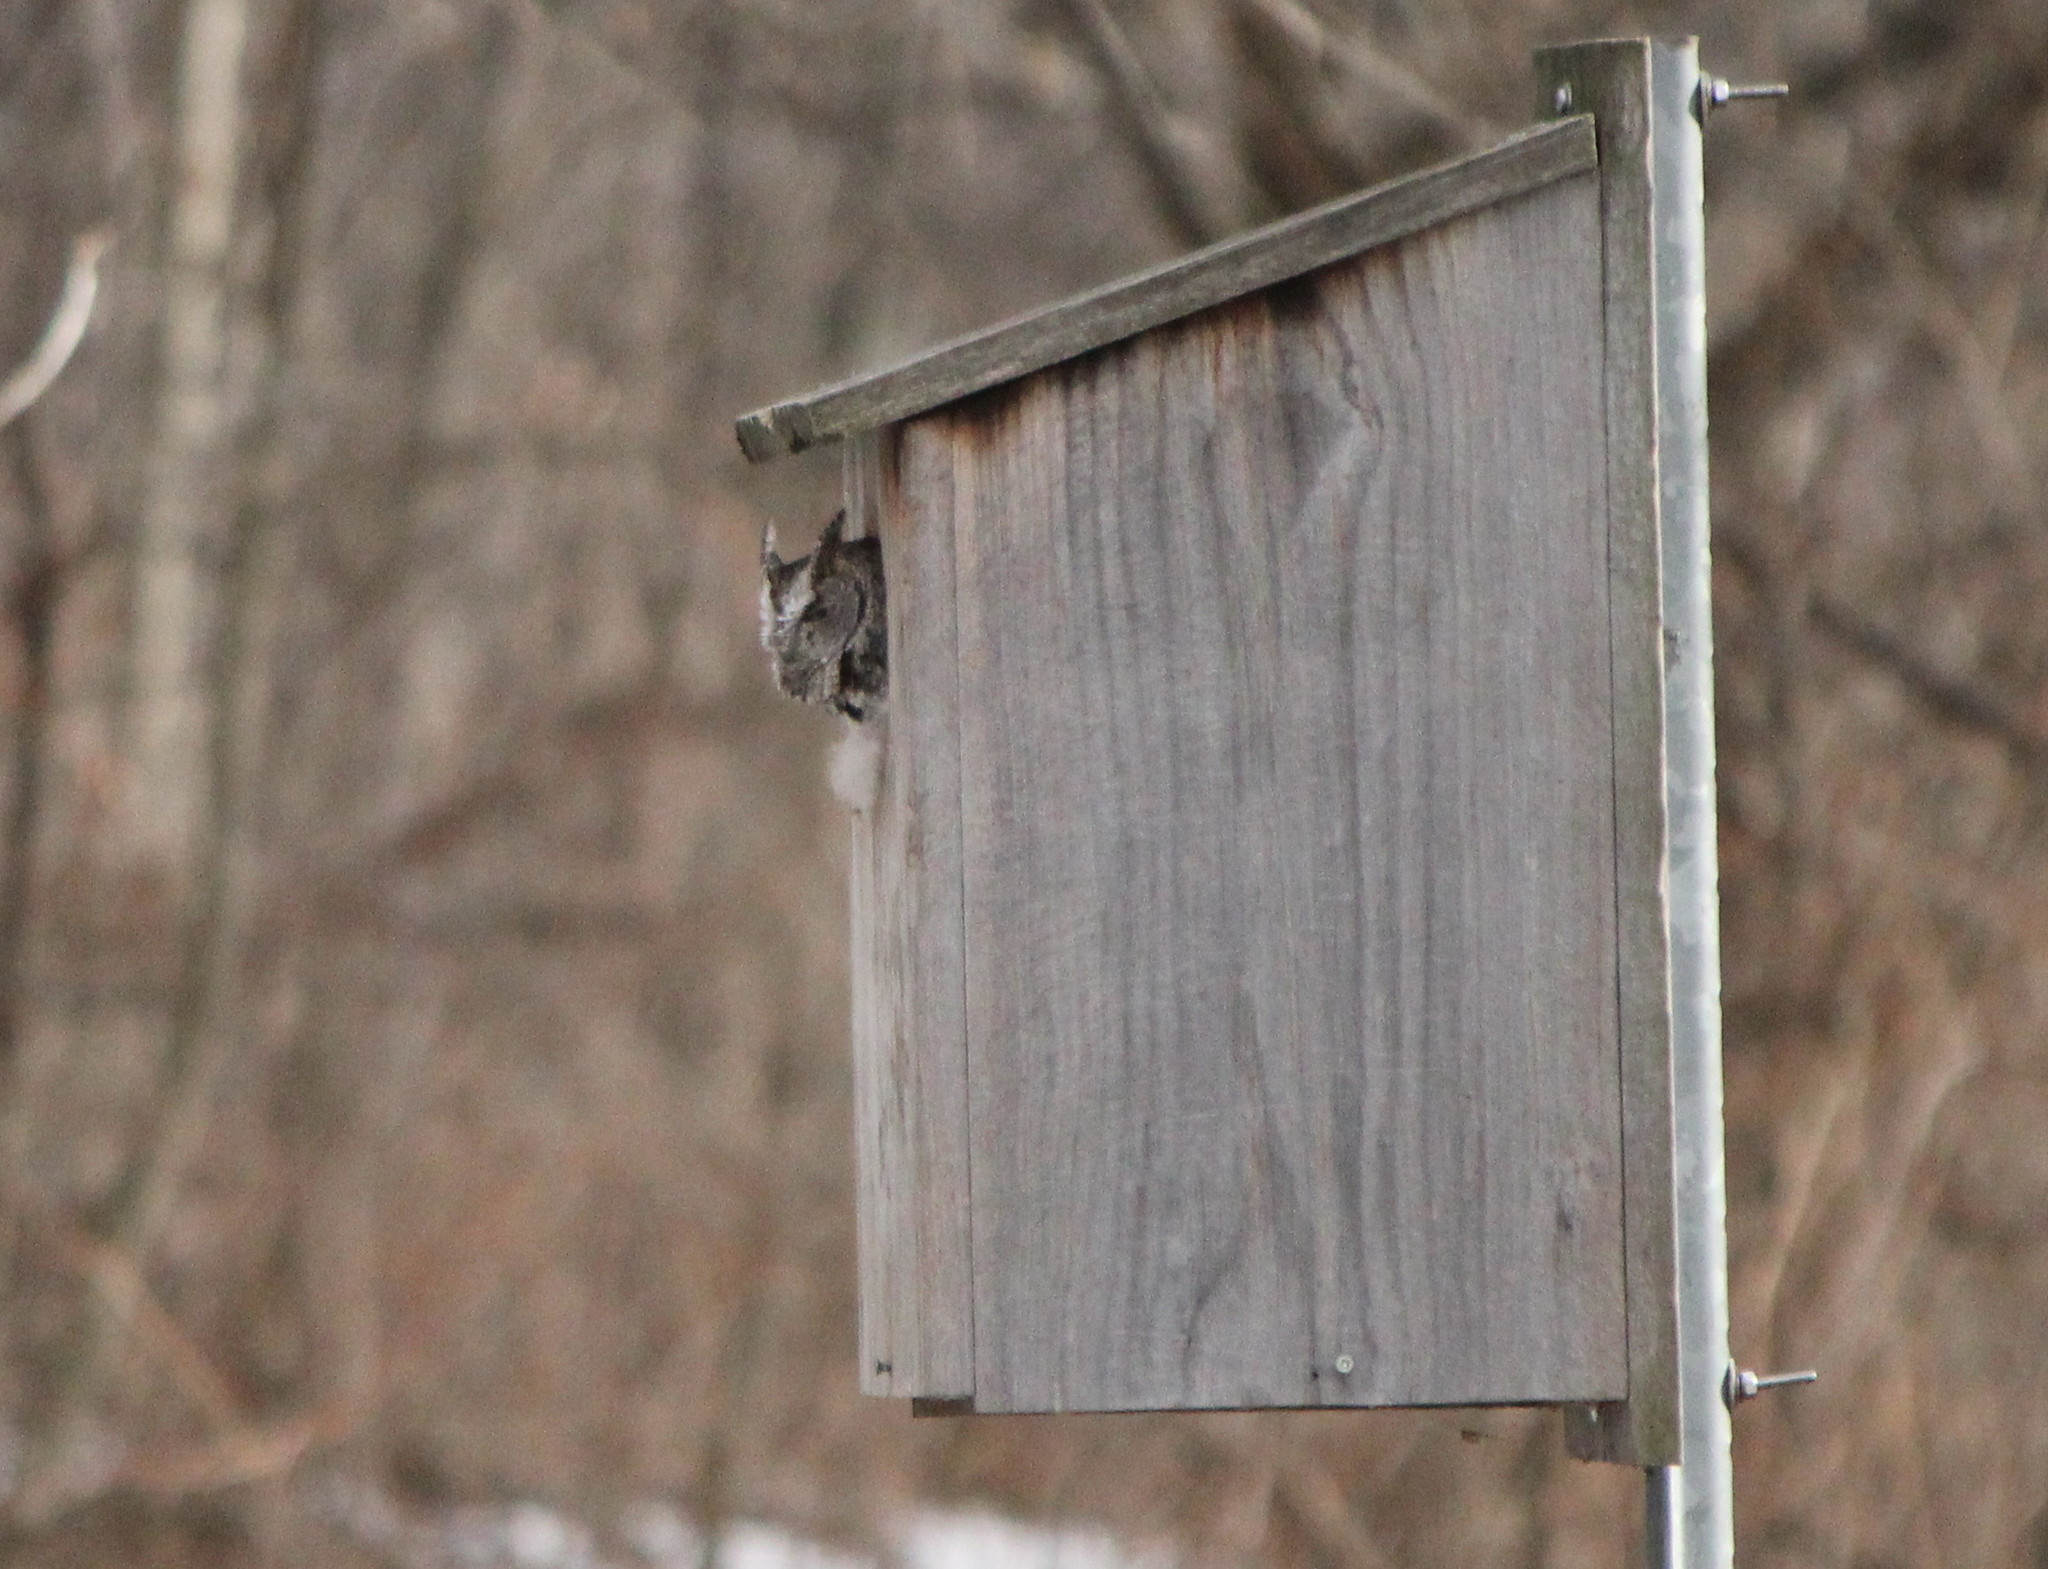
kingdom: Animalia
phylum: Chordata
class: Aves
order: Strigiformes
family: Strigidae
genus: Megascops
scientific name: Megascops asio
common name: Eastern screech-owl
